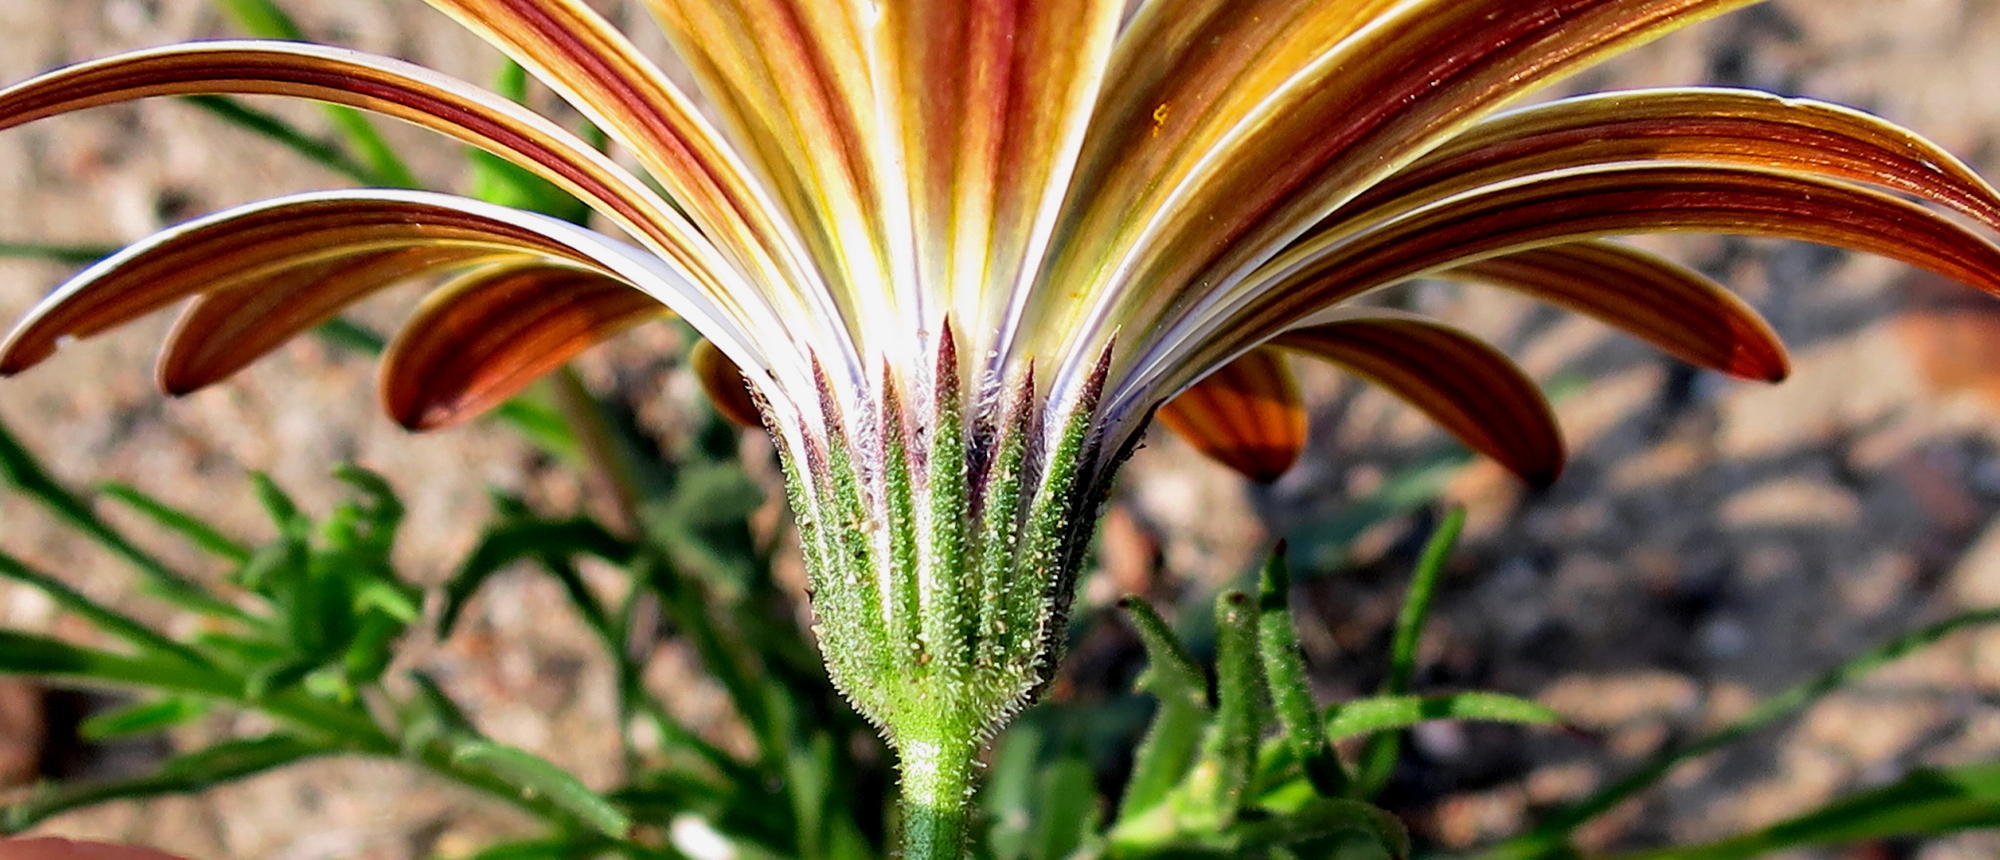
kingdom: Plantae
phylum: Tracheophyta
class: Magnoliopsida
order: Asterales
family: Asteraceae
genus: Dimorphotheca
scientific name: Dimorphotheca montana
